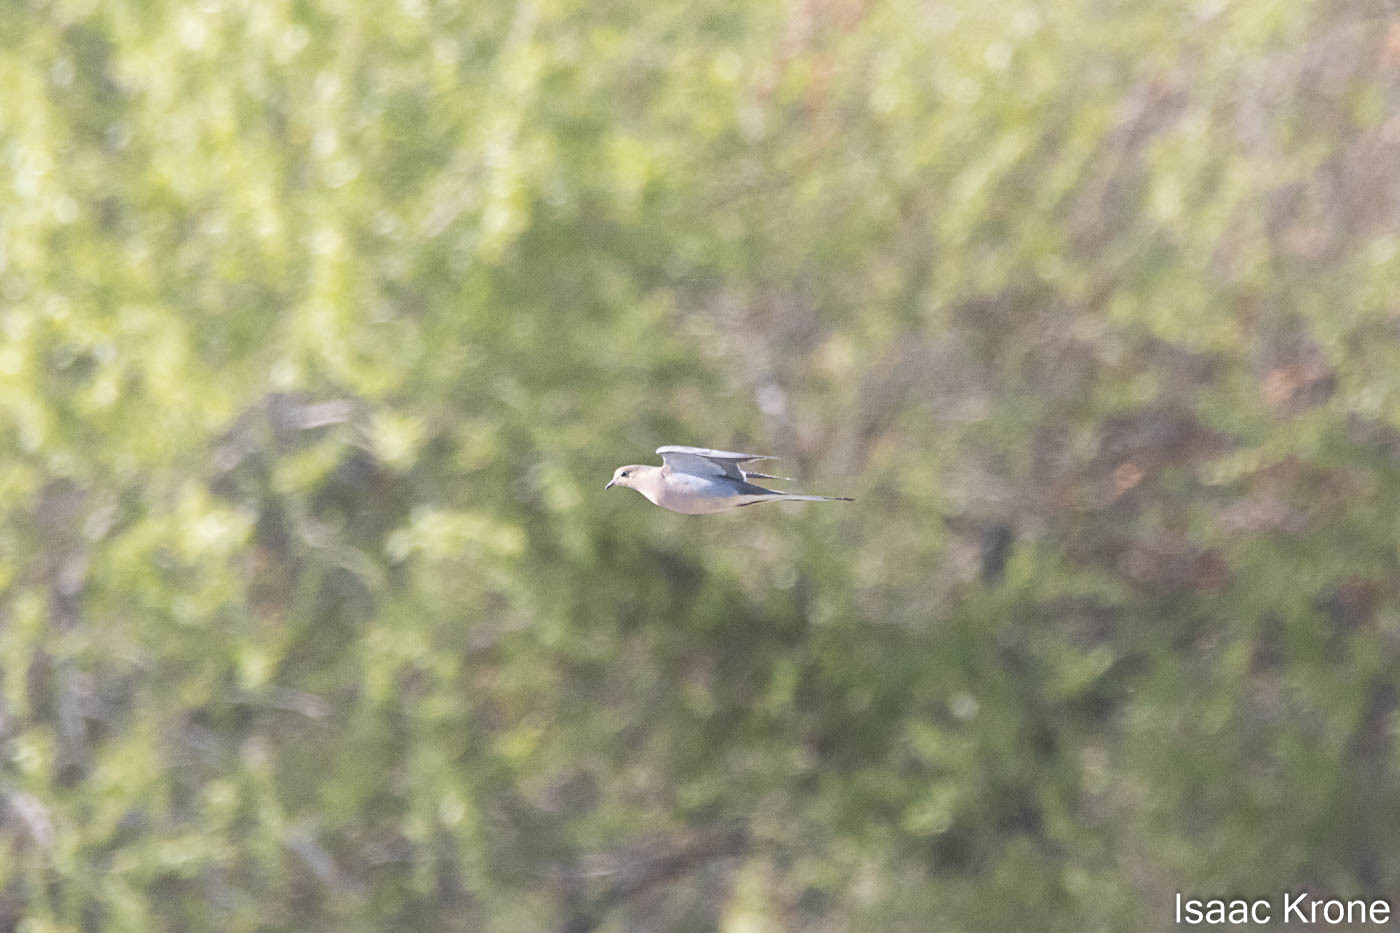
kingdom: Animalia
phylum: Chordata
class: Aves
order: Columbiformes
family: Columbidae
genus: Zenaida
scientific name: Zenaida macroura
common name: Mourning dove
